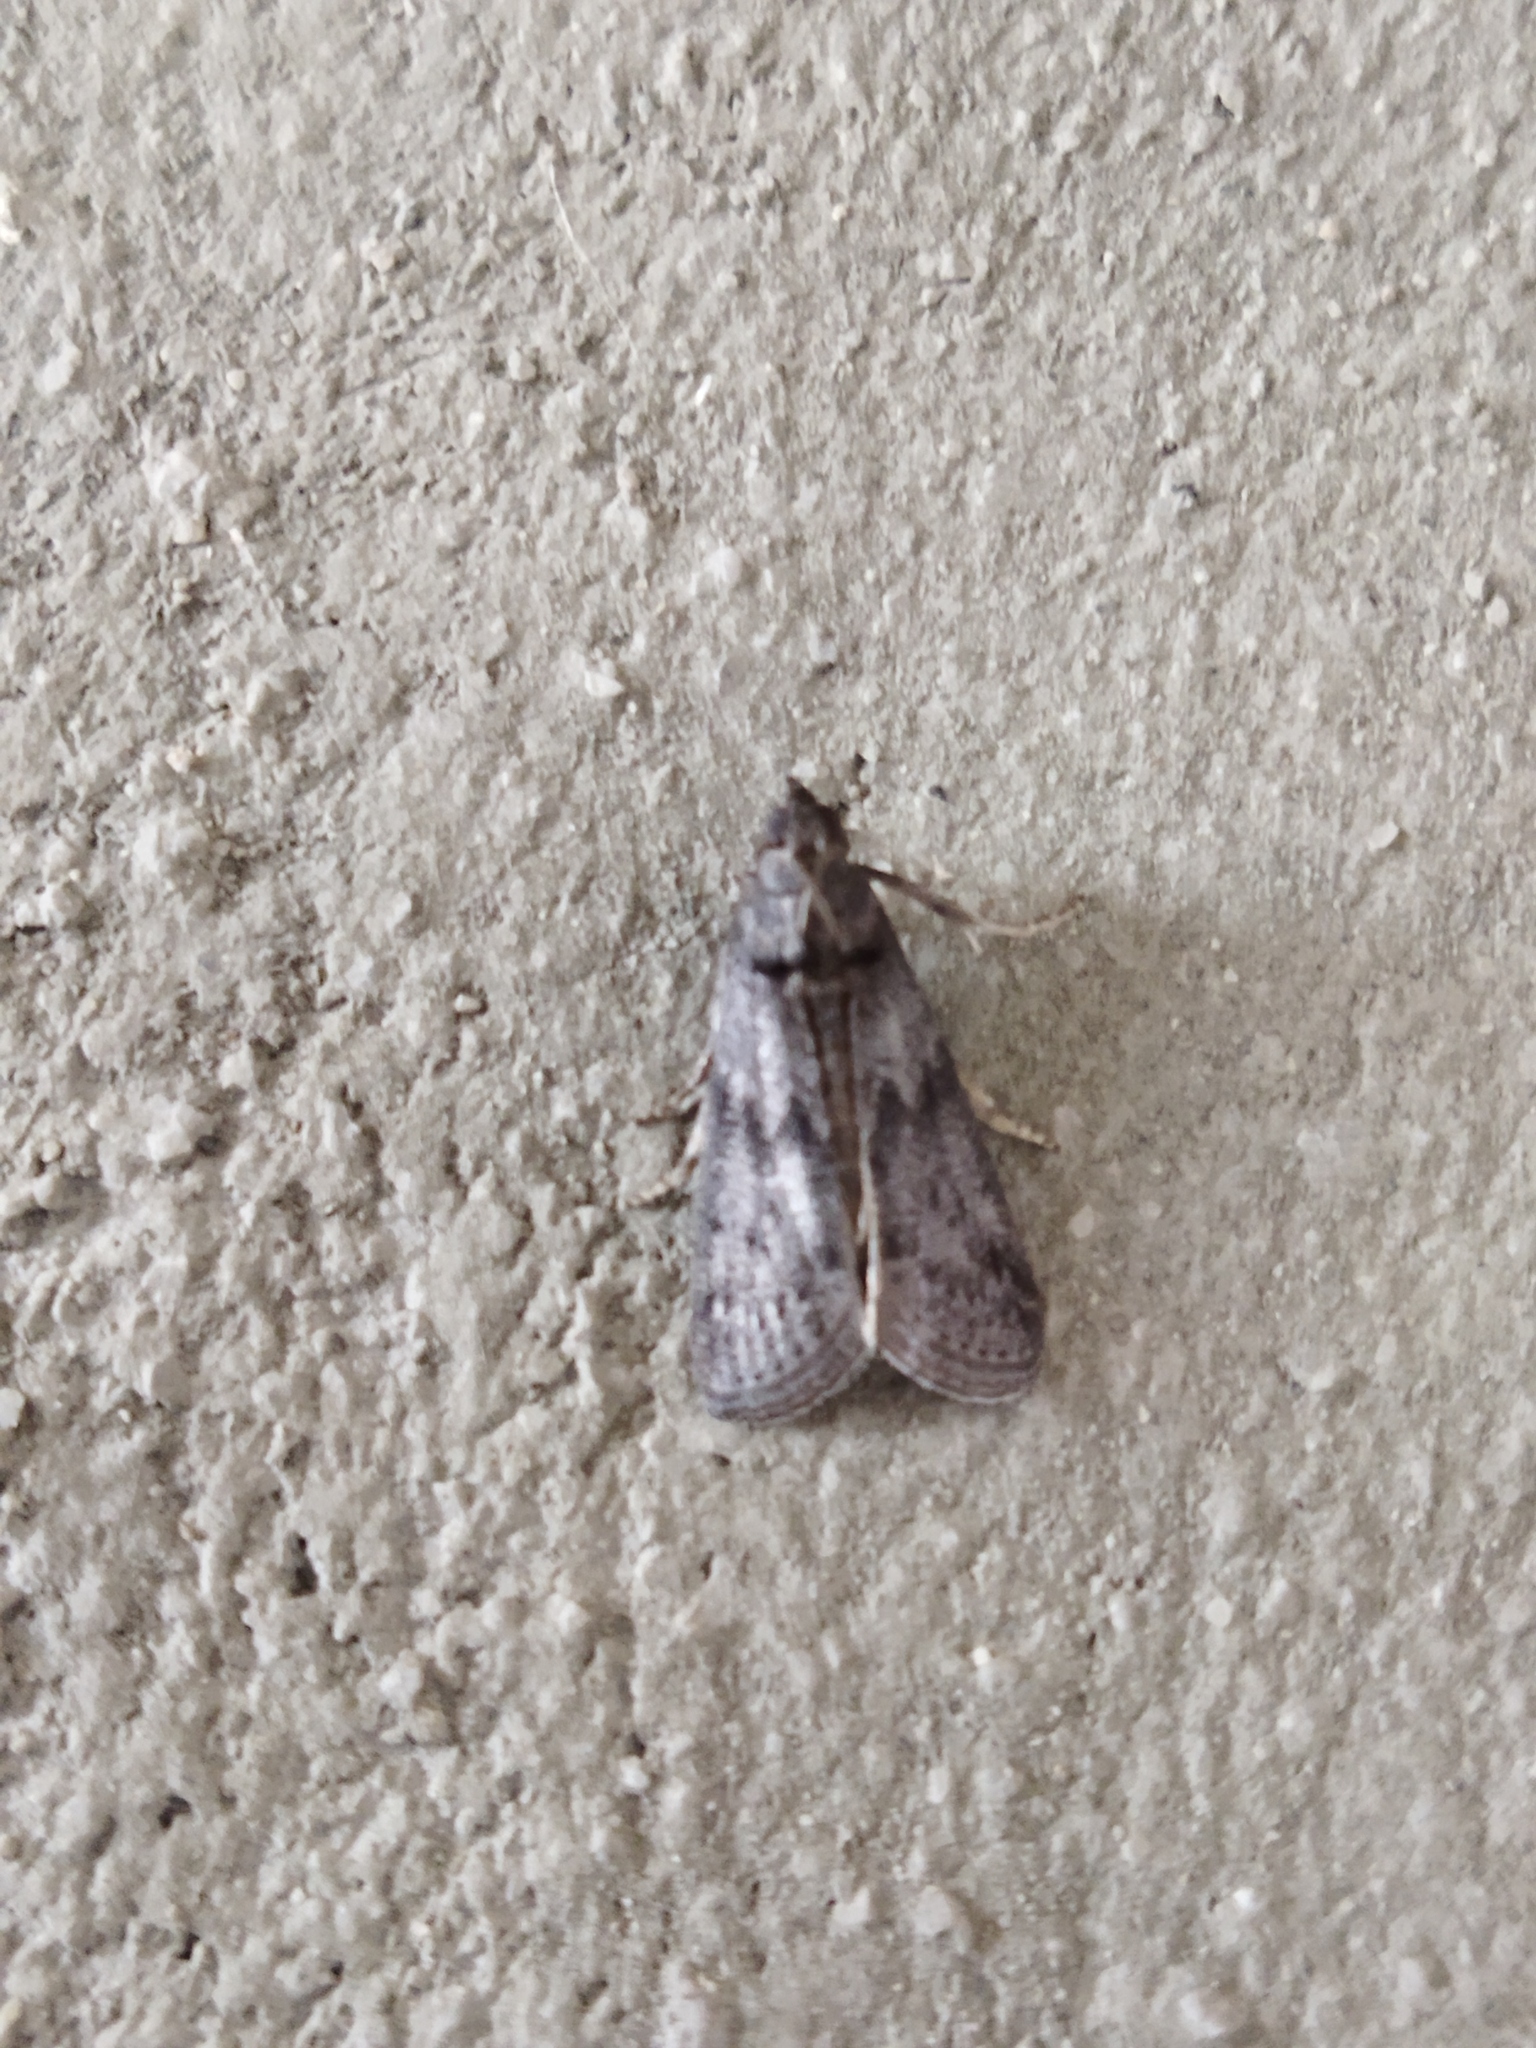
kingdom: Animalia
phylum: Arthropoda
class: Insecta
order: Lepidoptera
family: Pyralidae
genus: Ectomyelois
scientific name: Ectomyelois ceratoniae
